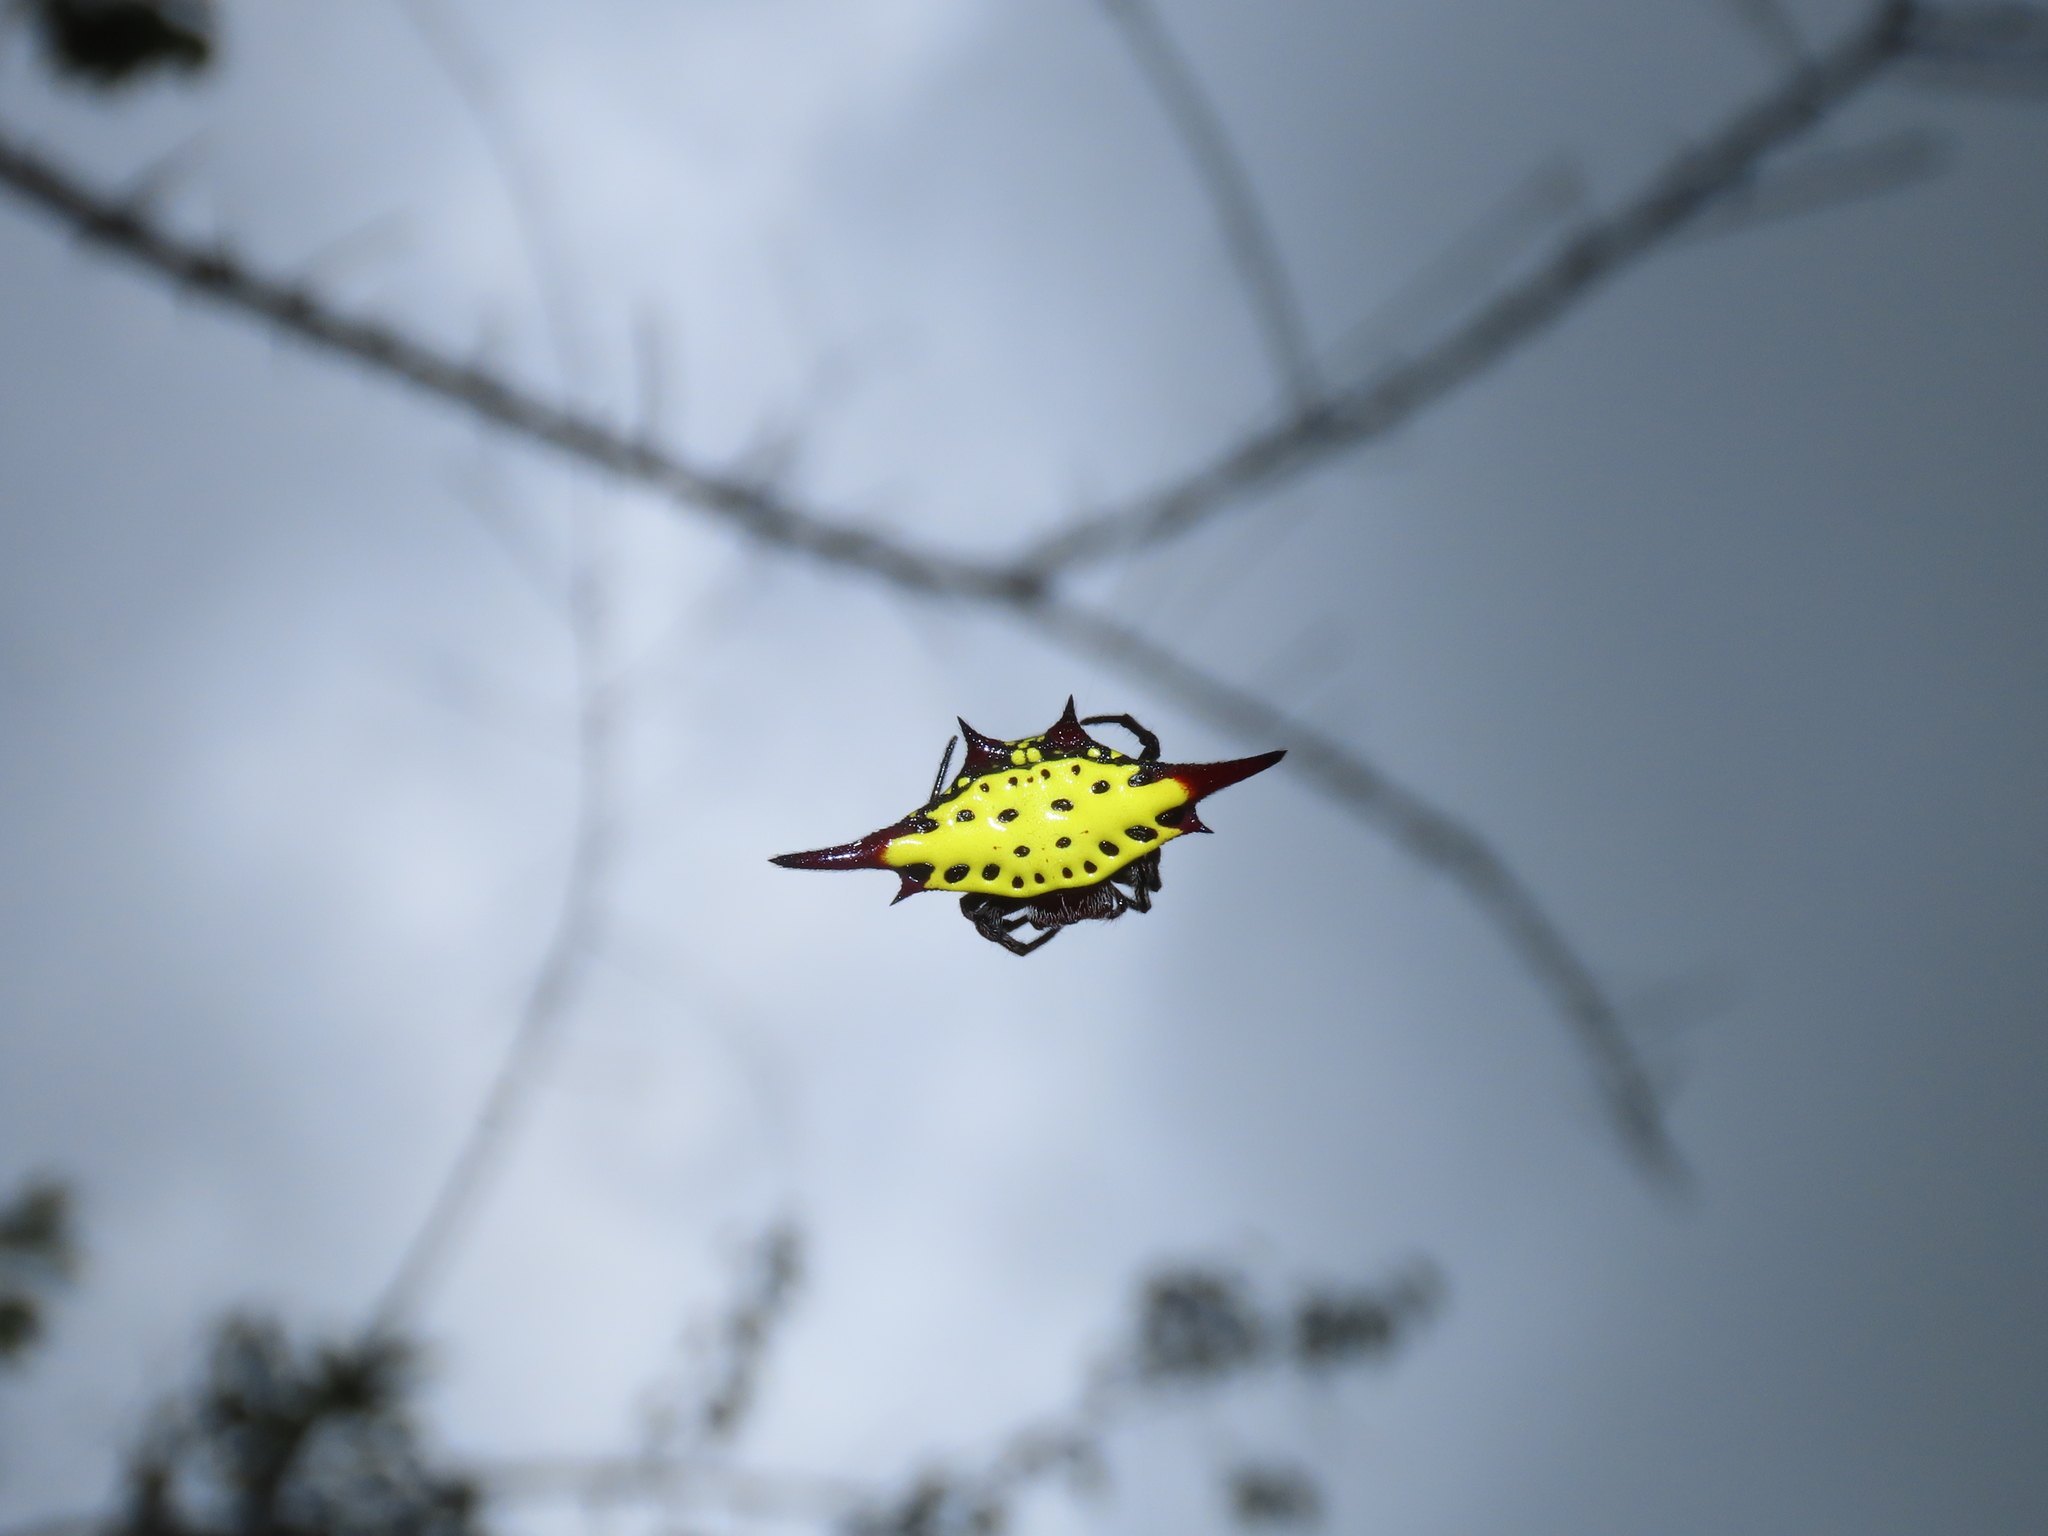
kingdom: Animalia
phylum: Arthropoda
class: Arachnida
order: Araneae
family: Araneidae
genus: Gasteracantha
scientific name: Gasteracantha sauteri
